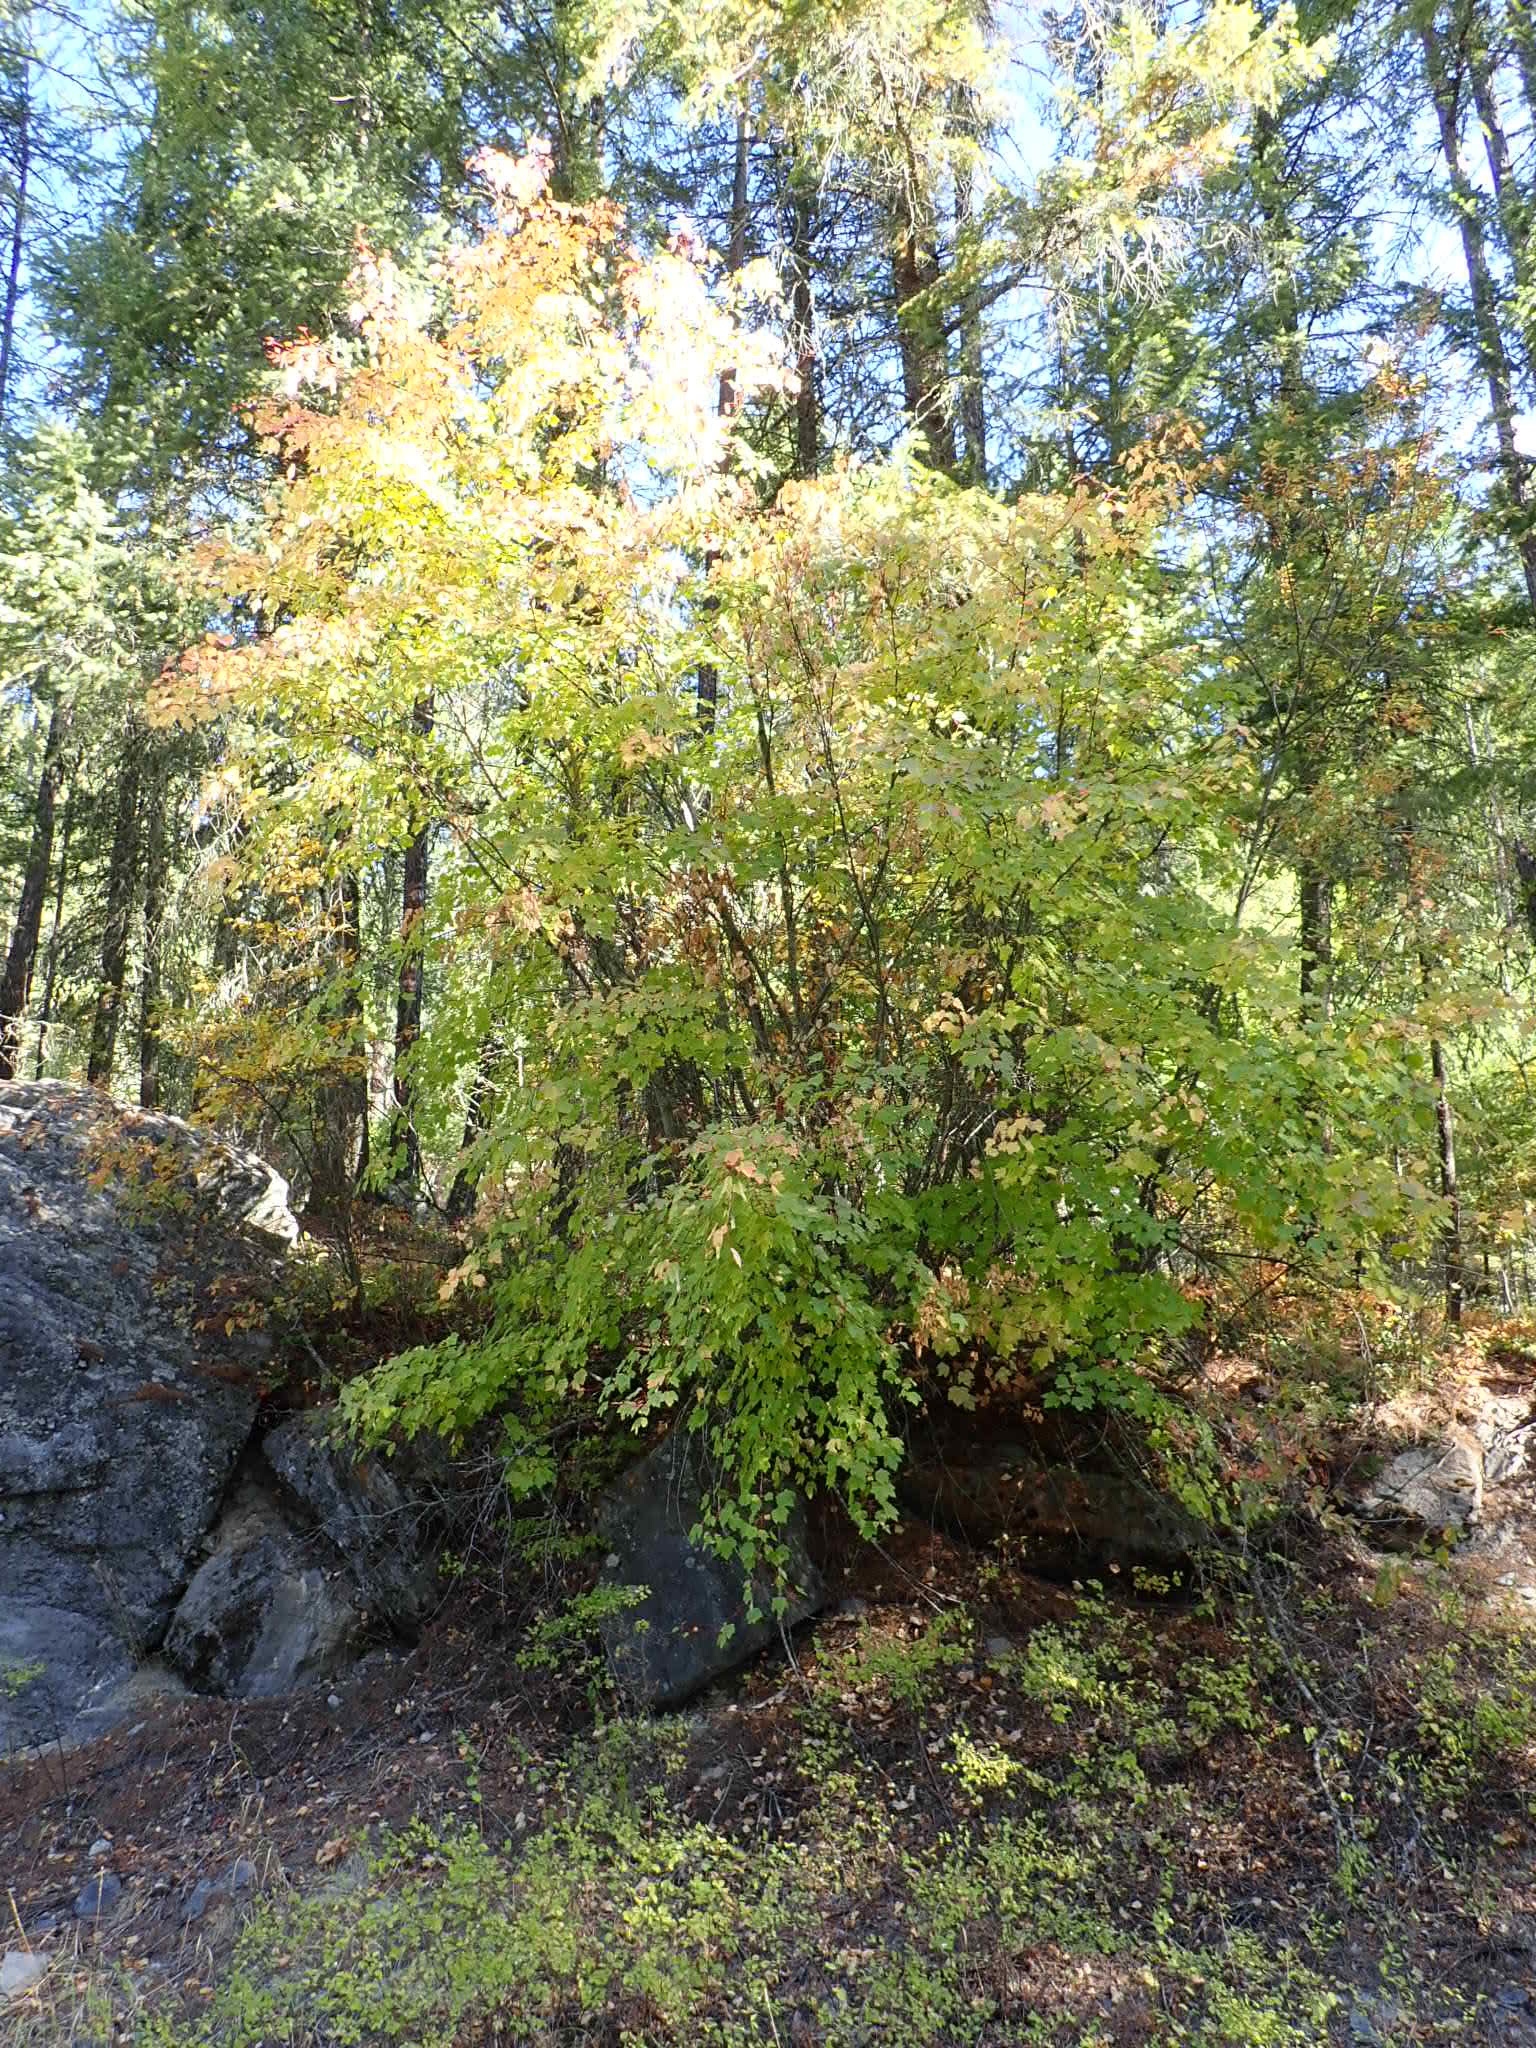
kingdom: Plantae
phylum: Tracheophyta
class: Magnoliopsida
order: Sapindales
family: Sapindaceae
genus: Acer
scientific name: Acer glabrum
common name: Rocky mountain maple
